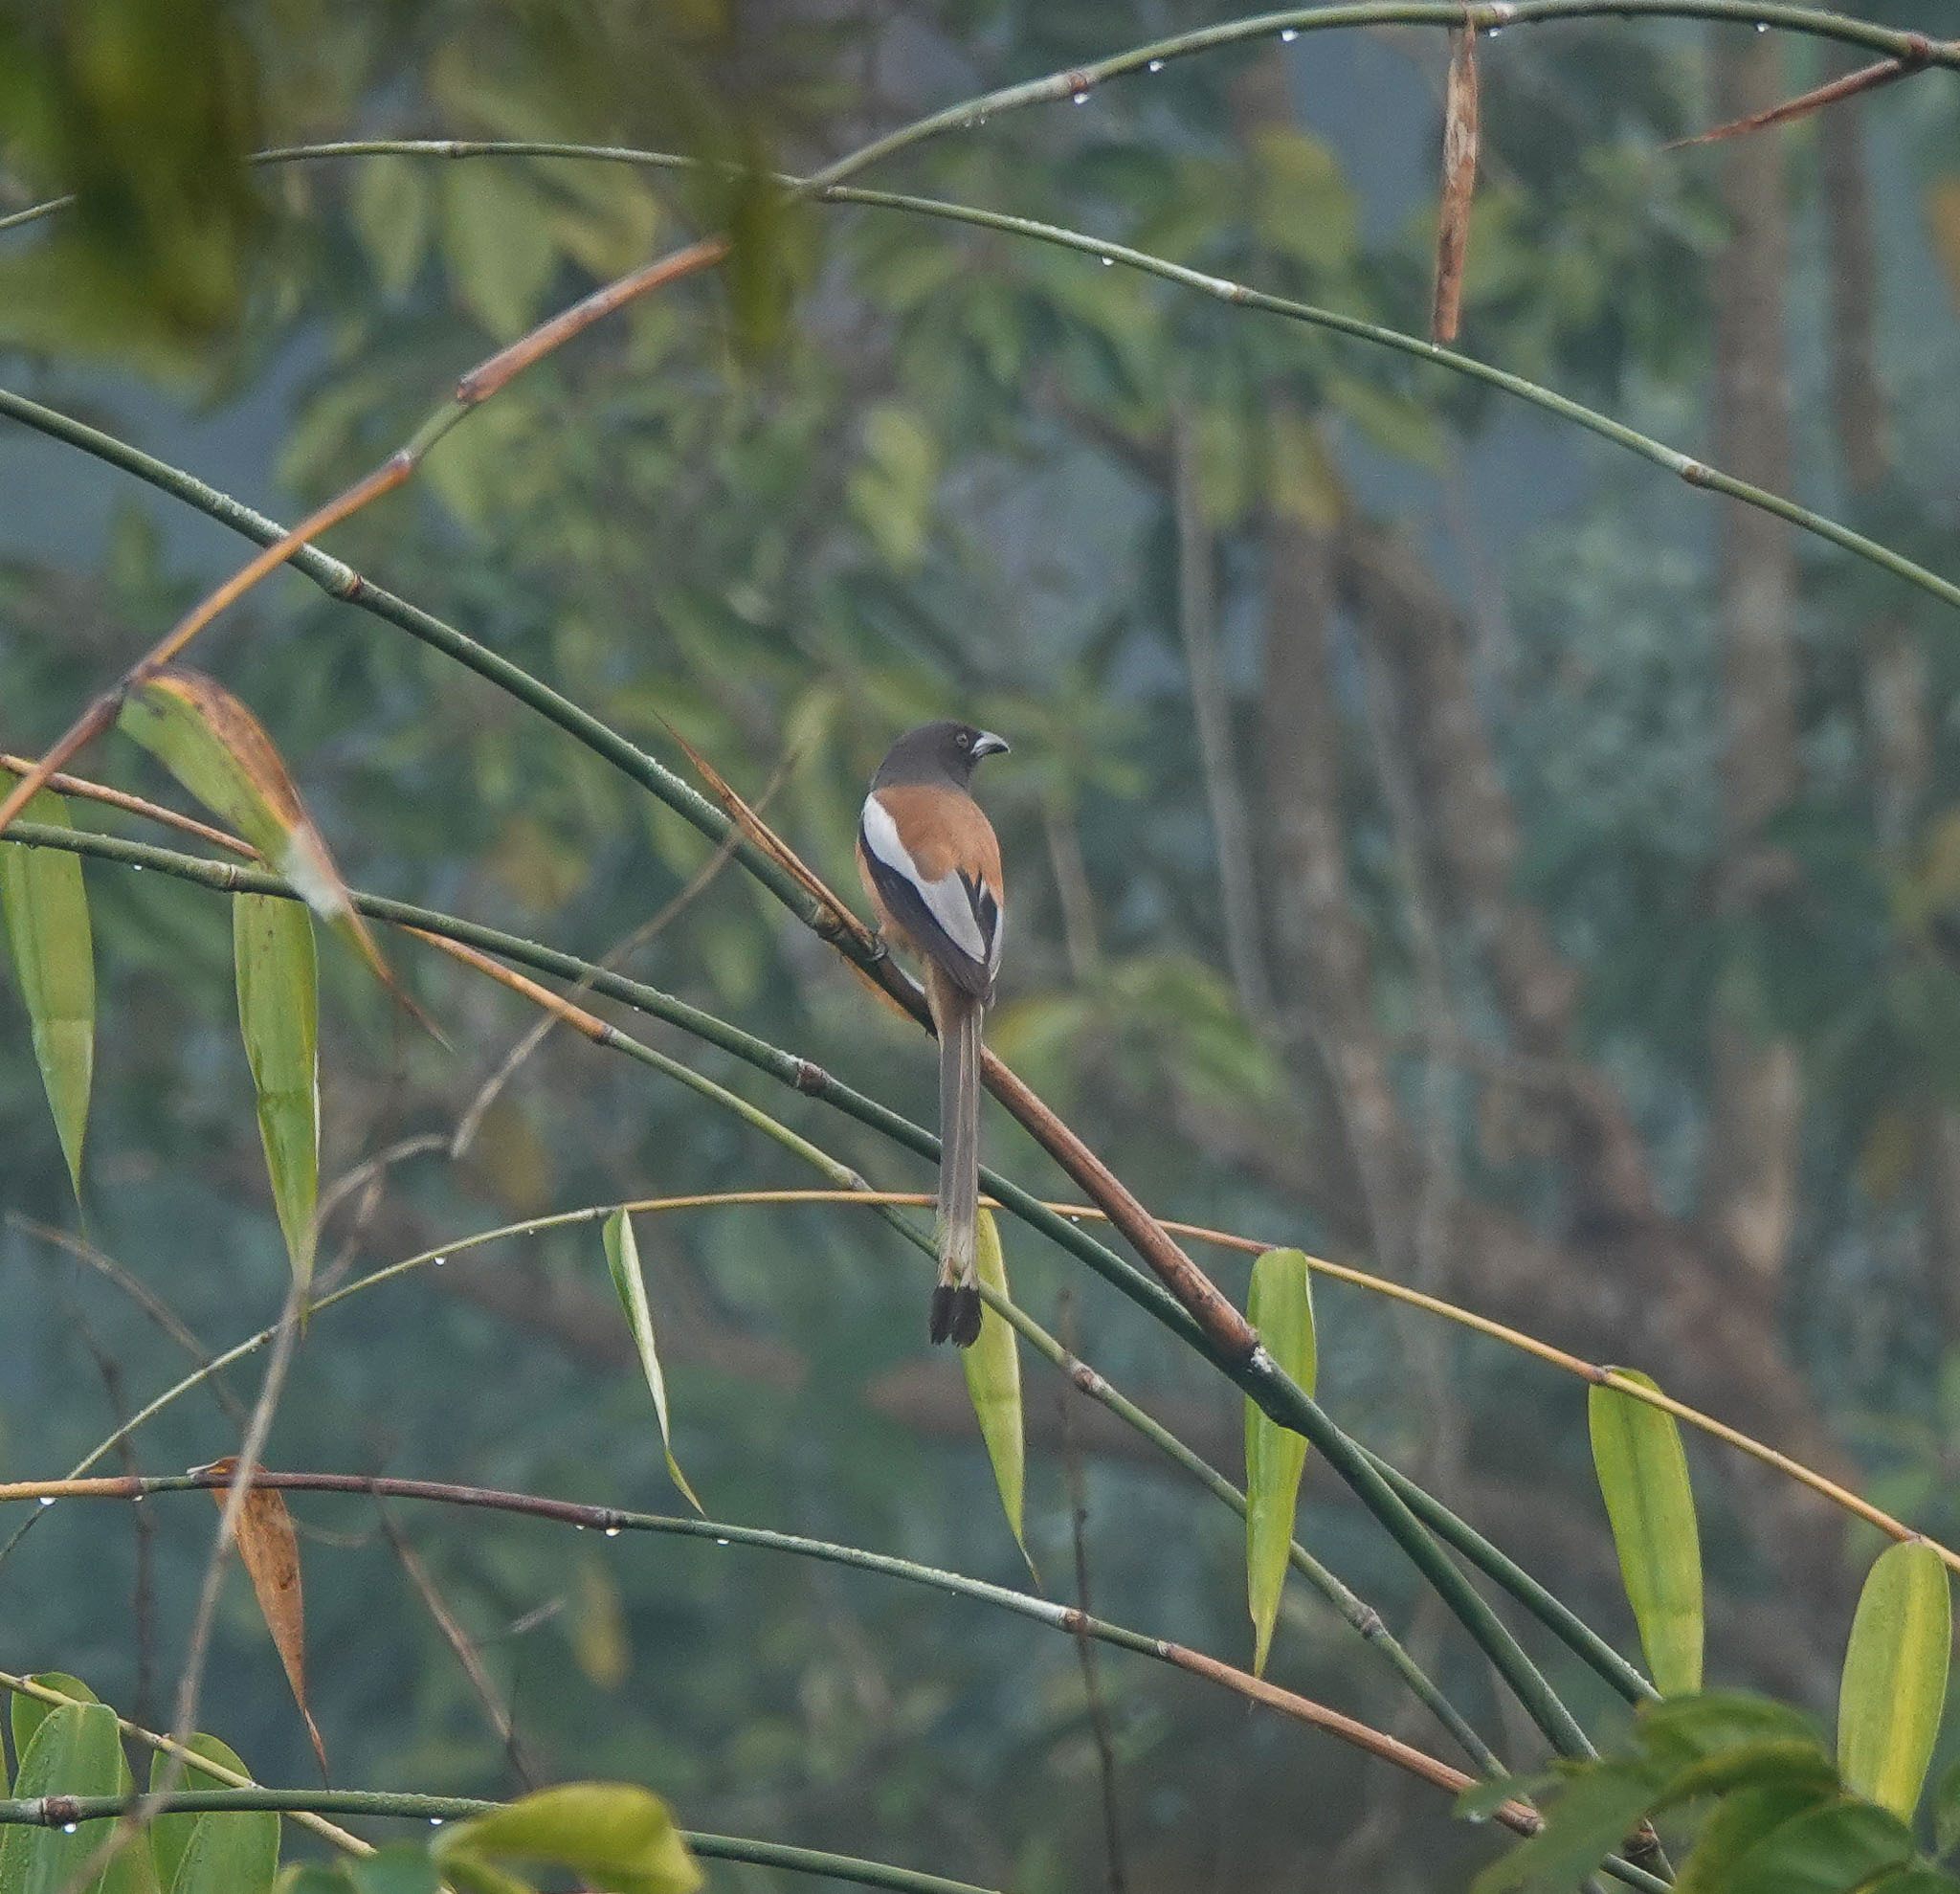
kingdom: Animalia
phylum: Chordata
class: Aves
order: Passeriformes
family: Corvidae
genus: Dendrocitta
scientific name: Dendrocitta vagabunda
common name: Rufous treepie
